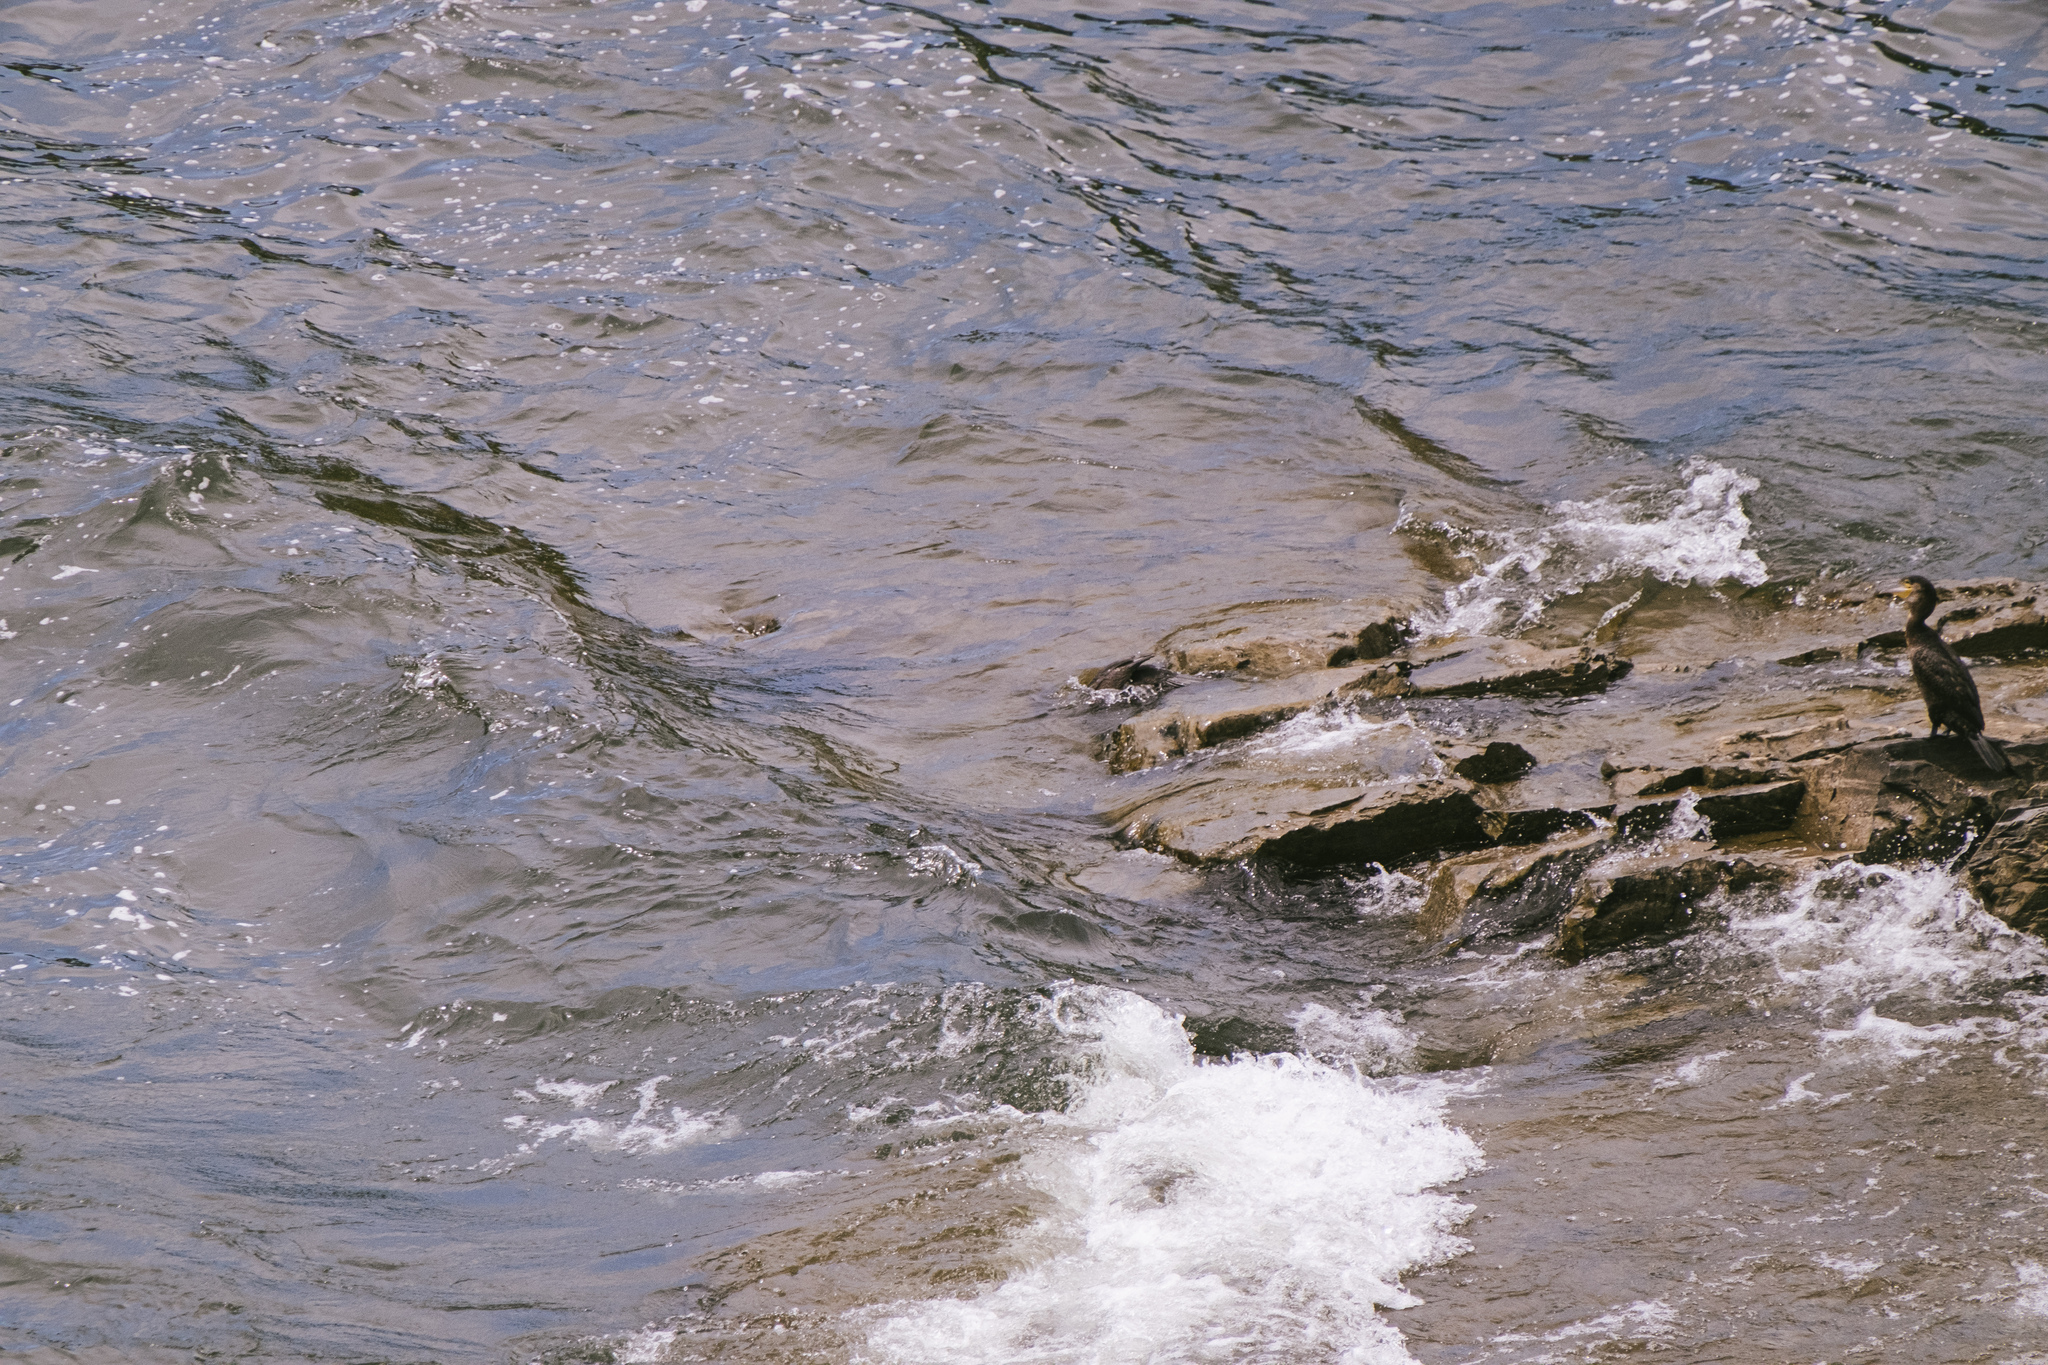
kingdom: Animalia
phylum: Chordata
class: Aves
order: Suliformes
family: Phalacrocoracidae
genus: Phalacrocorax
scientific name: Phalacrocorax carbo
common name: Great cormorant
